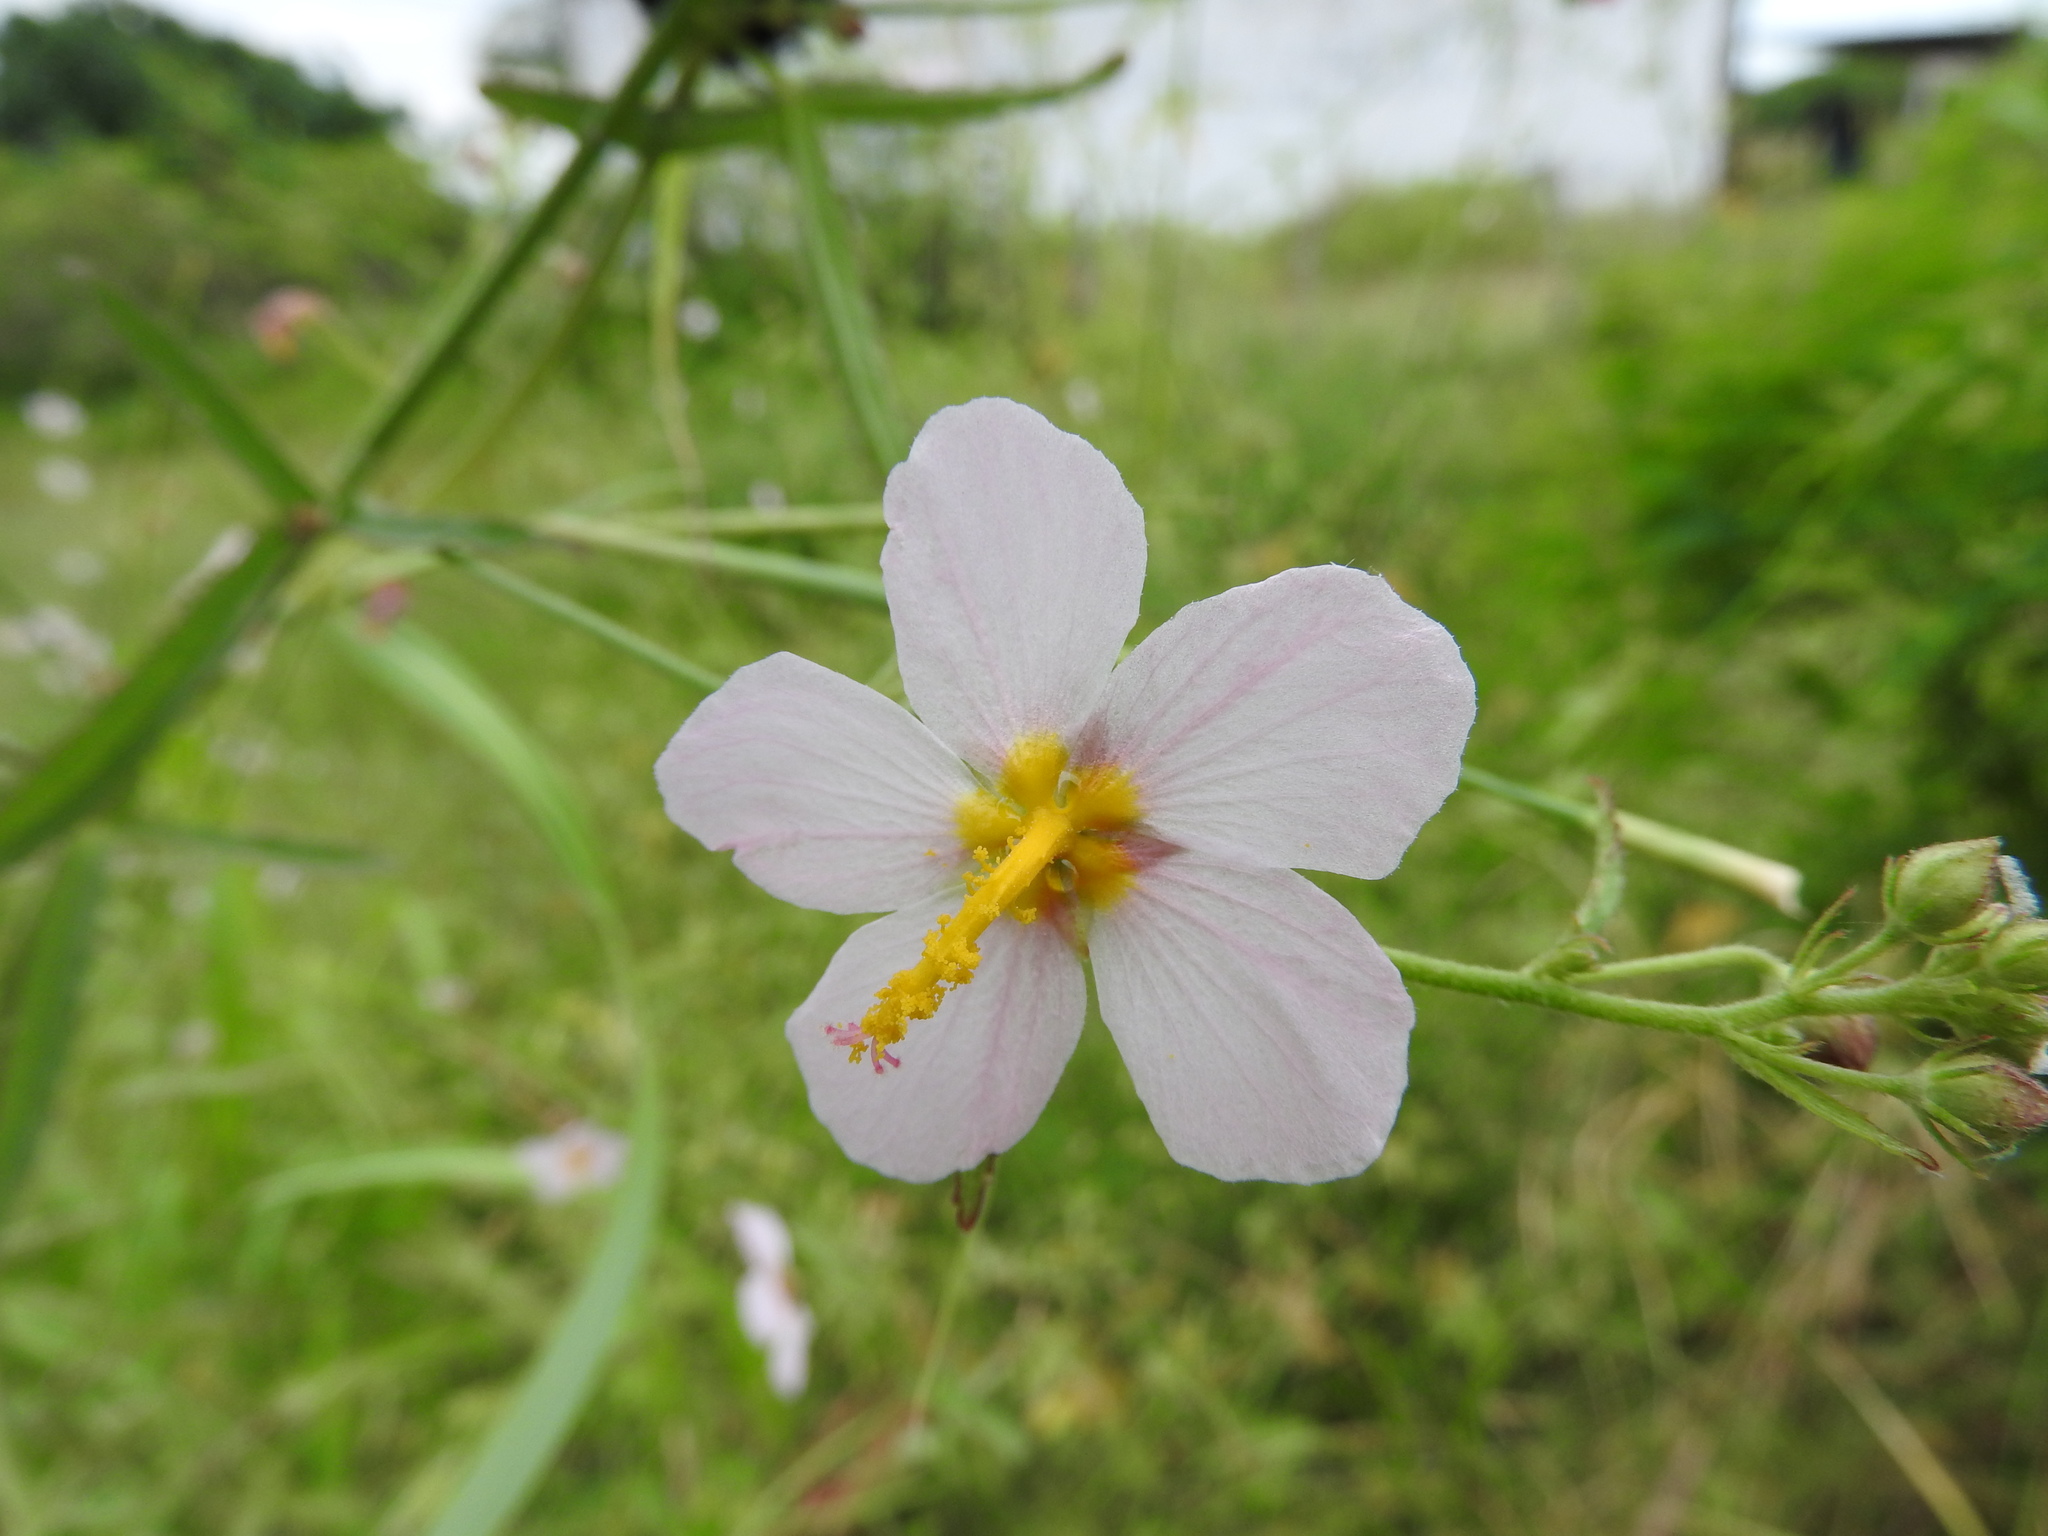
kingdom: Plantae
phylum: Tracheophyta
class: Magnoliopsida
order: Malvales
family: Malvaceae
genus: Kosteletzkya
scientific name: Kosteletzkya depressa
